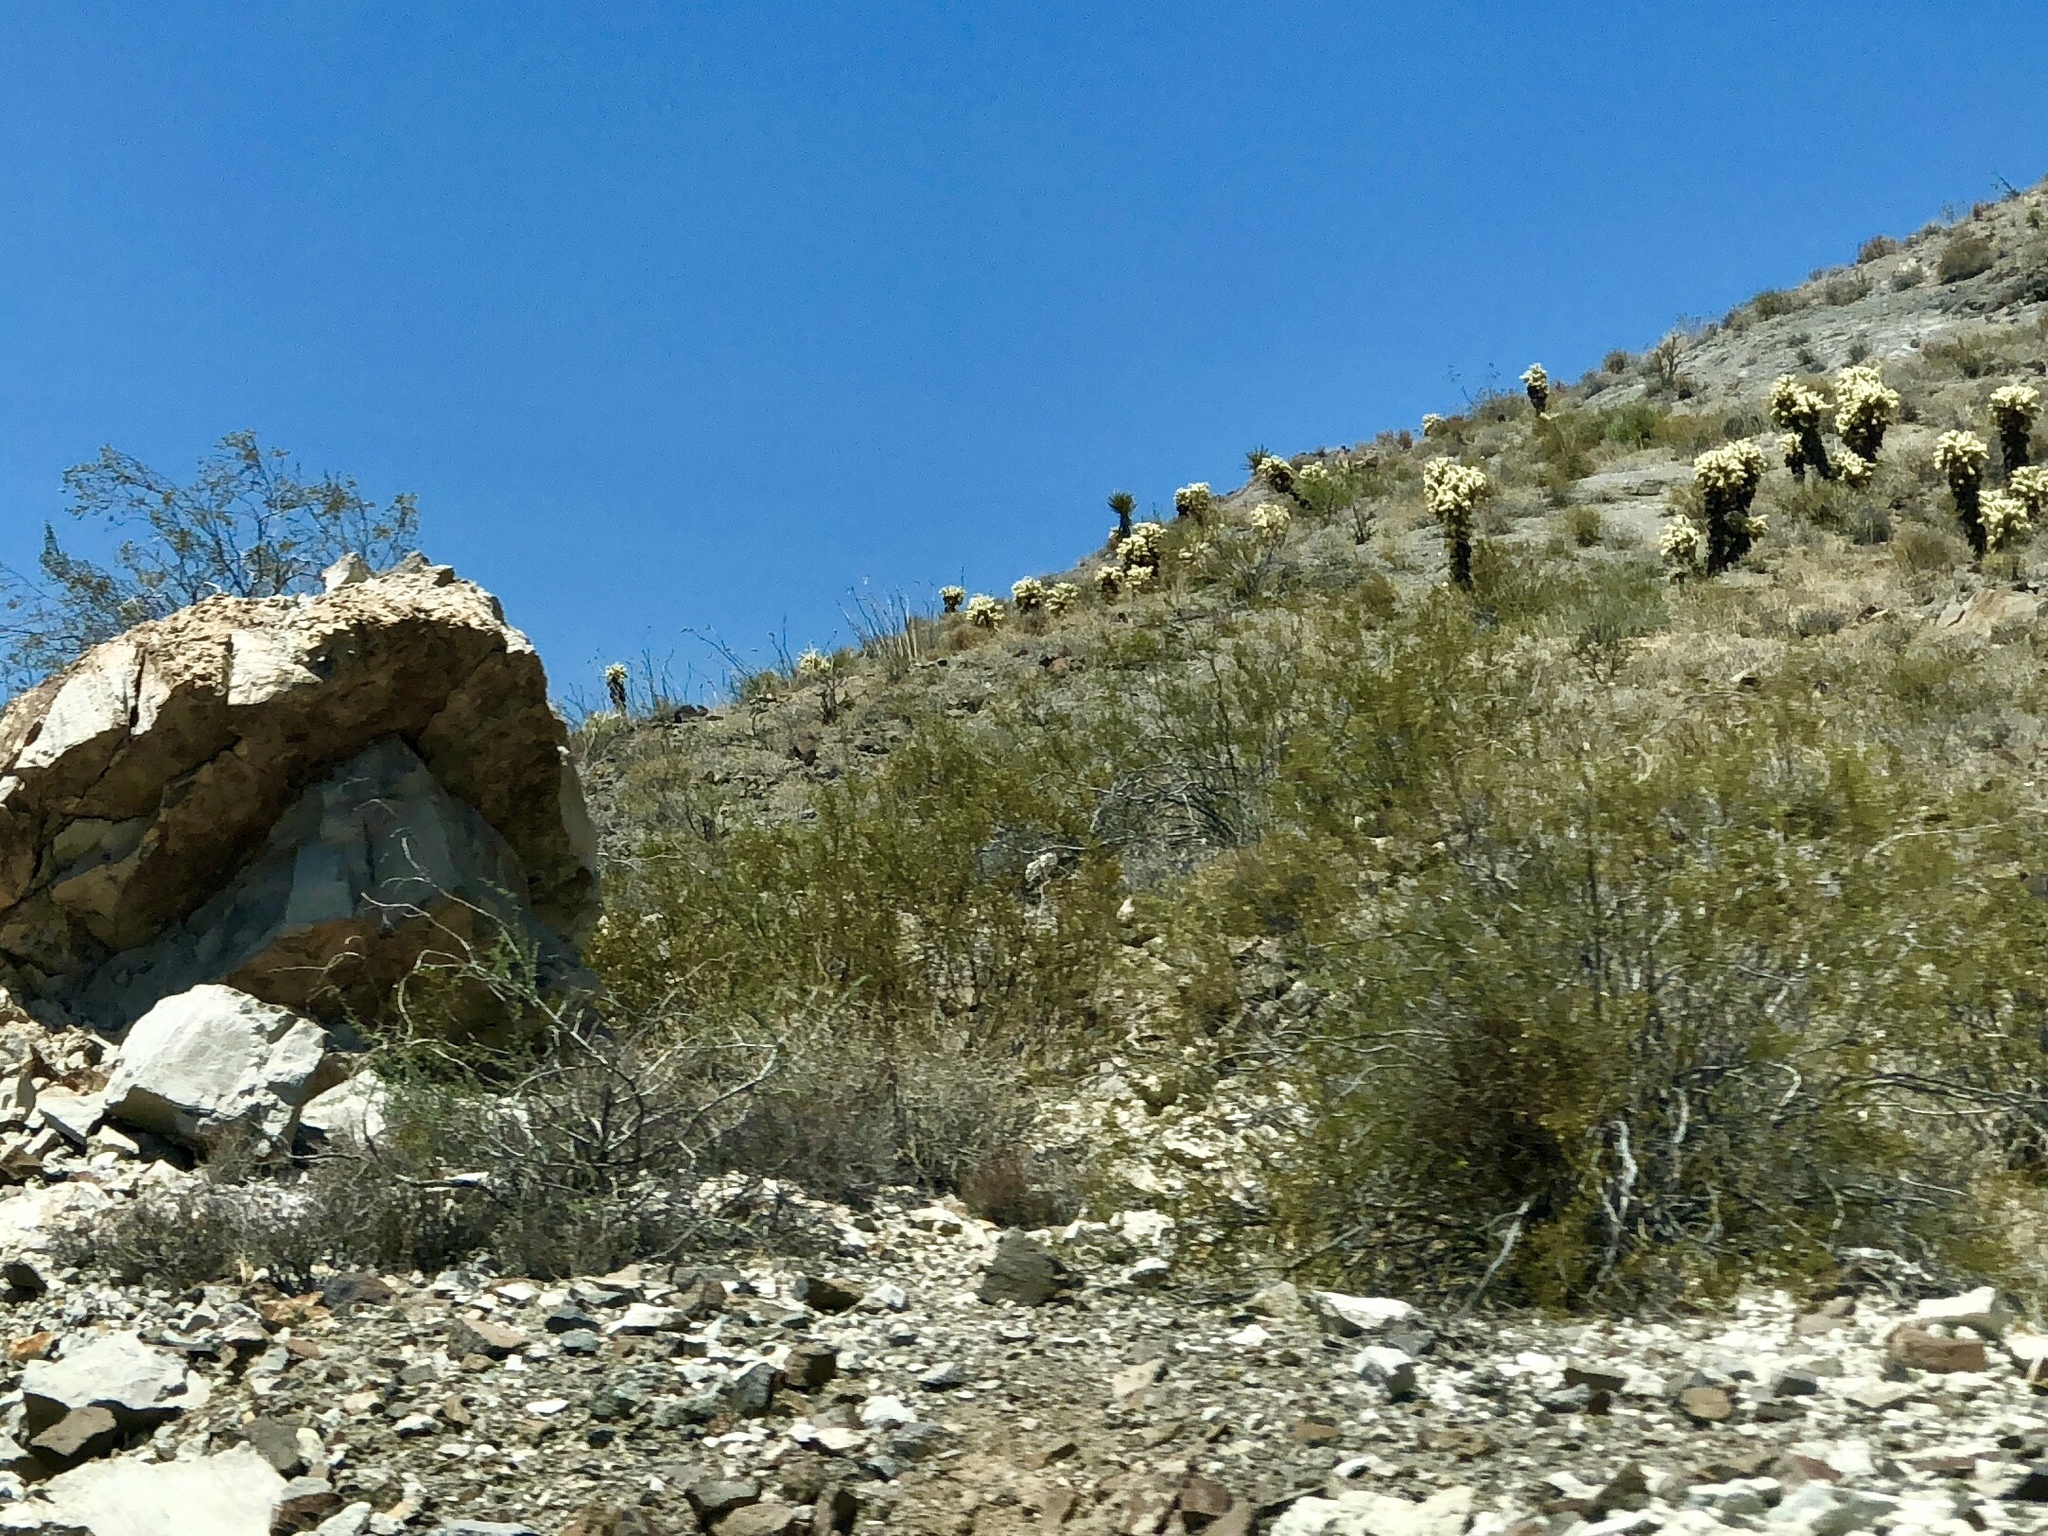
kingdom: Plantae
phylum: Tracheophyta
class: Magnoliopsida
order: Zygophyllales
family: Zygophyllaceae
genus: Larrea
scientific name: Larrea tridentata
